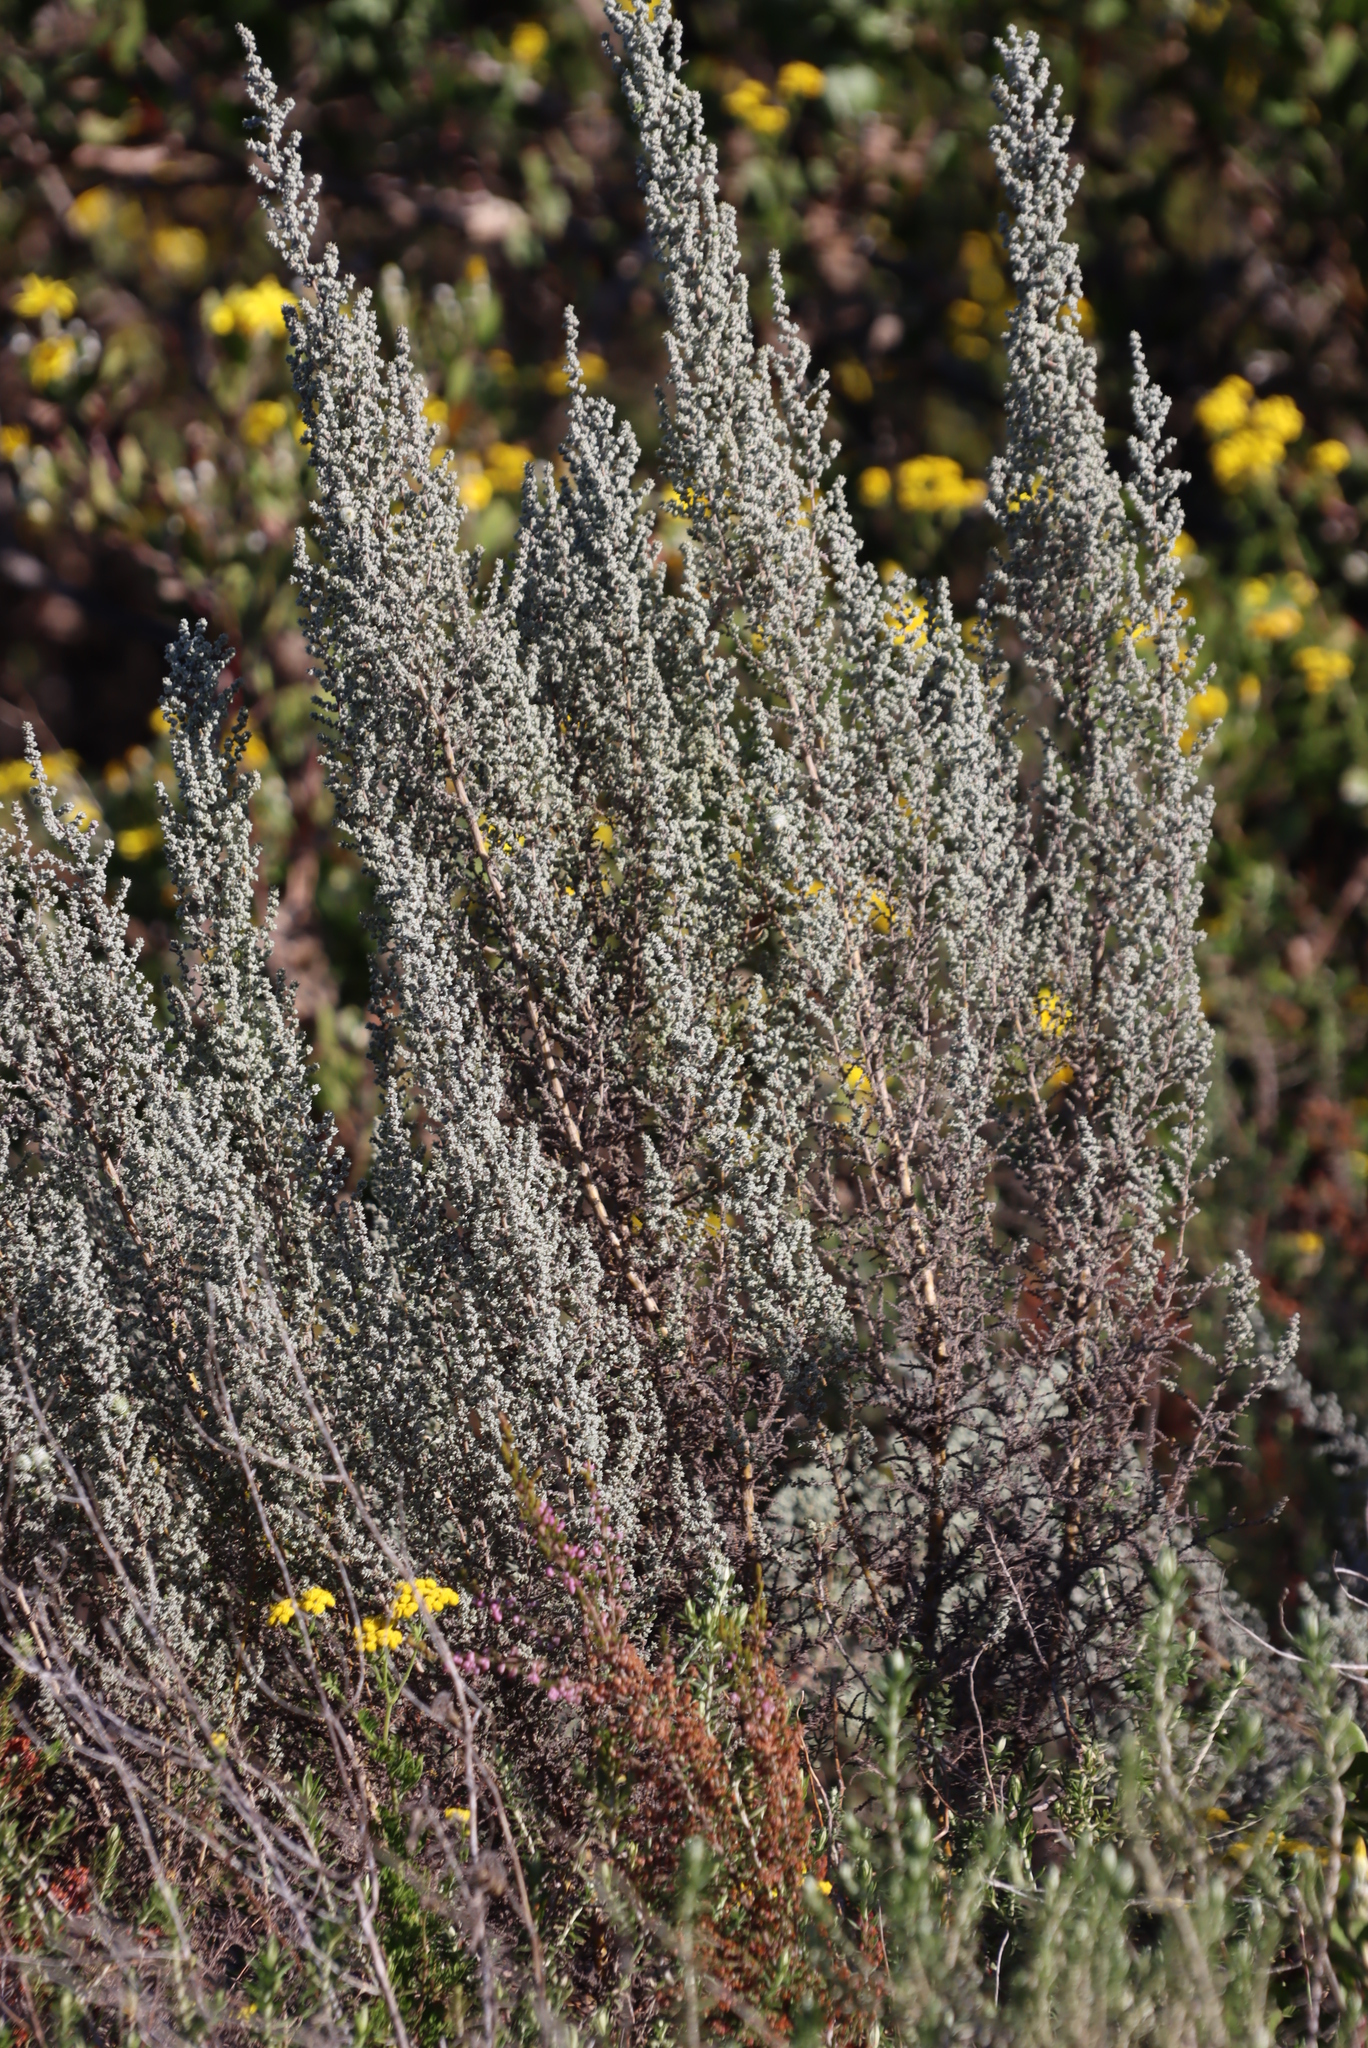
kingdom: Plantae
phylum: Tracheophyta
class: Magnoliopsida
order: Asterales
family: Asteraceae
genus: Seriphium
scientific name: Seriphium plumosum
